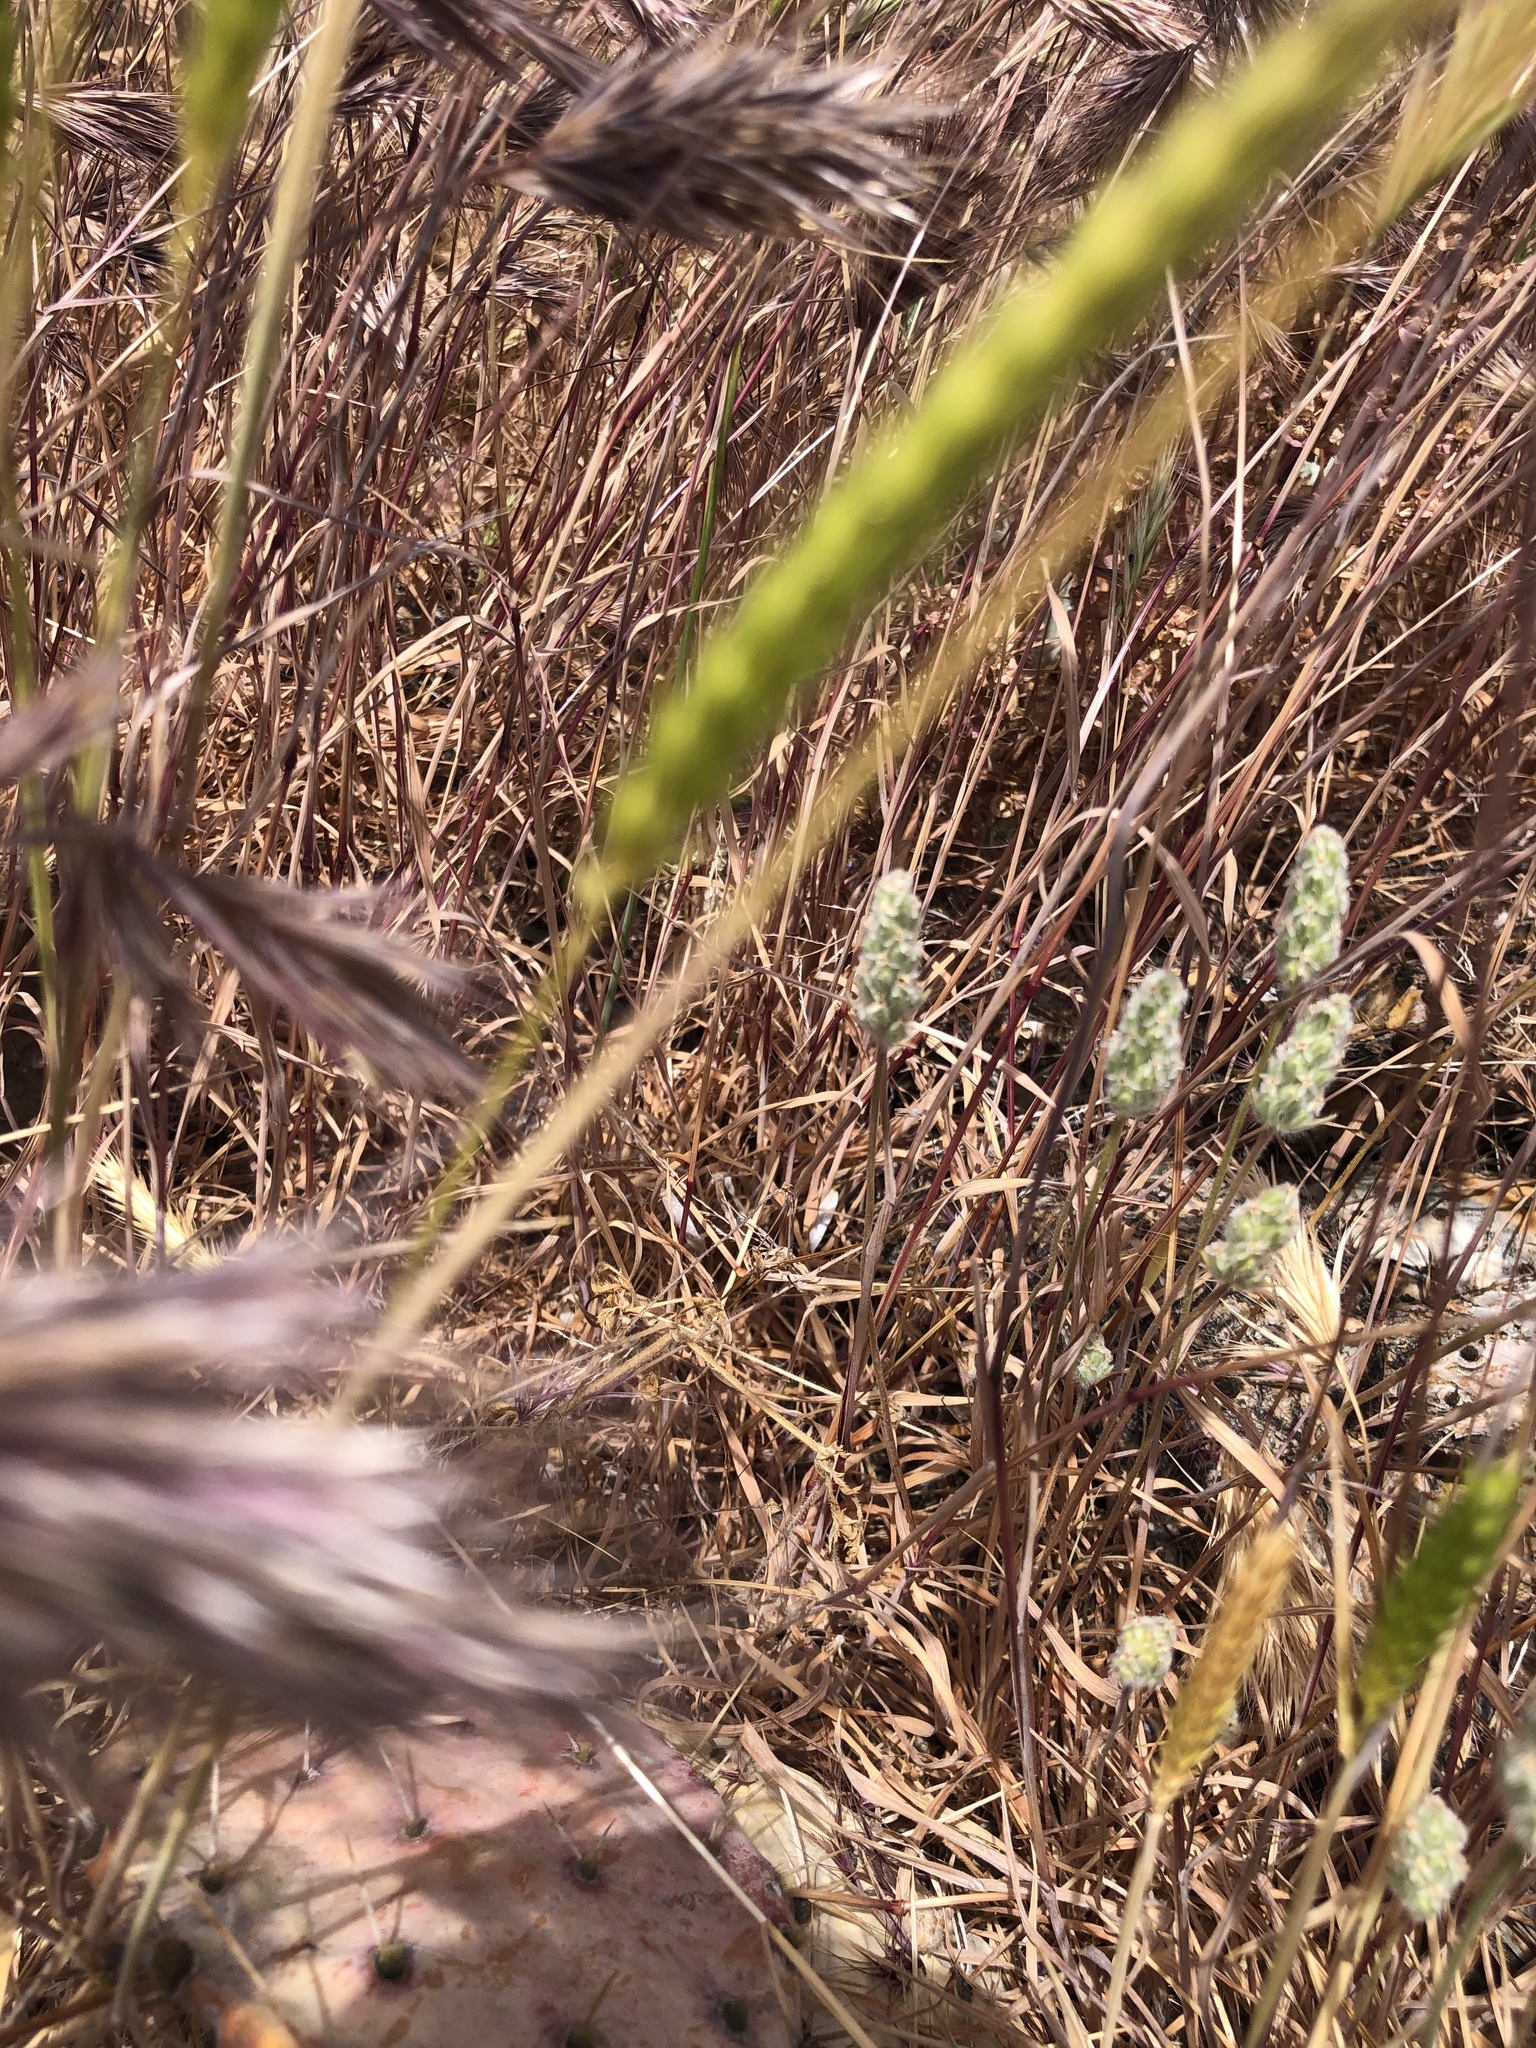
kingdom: Plantae
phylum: Tracheophyta
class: Liliopsida
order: Poales
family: Poaceae
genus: Bromus
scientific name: Bromus rubens
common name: Red brome
